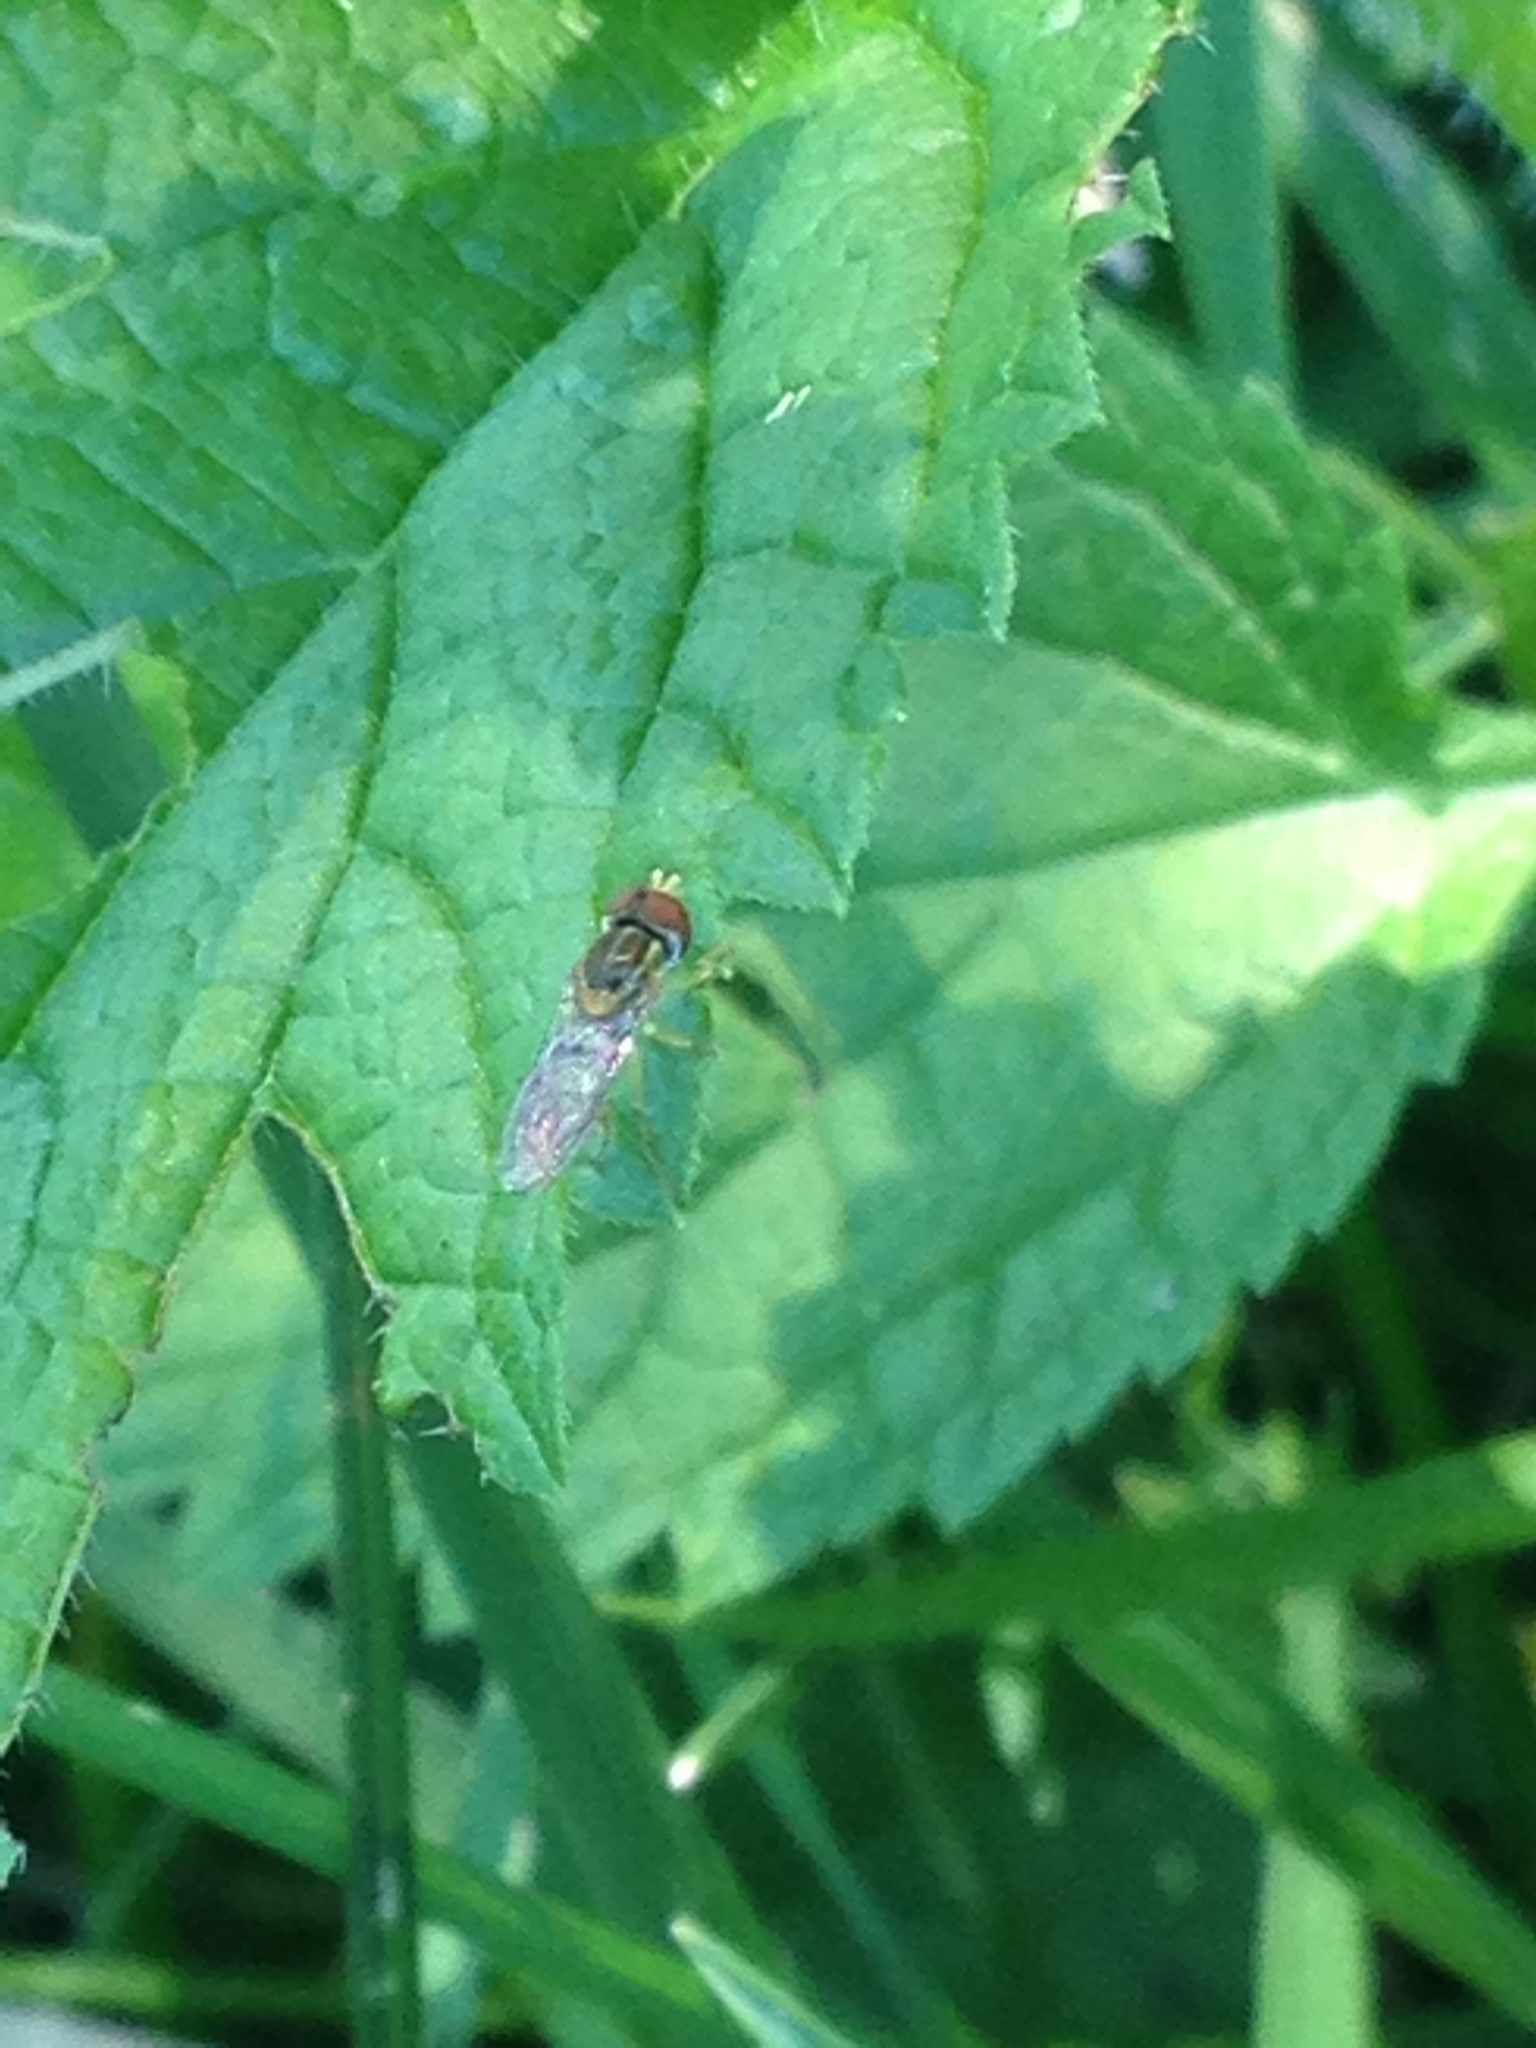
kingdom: Animalia
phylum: Arthropoda
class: Insecta
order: Diptera
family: Syrphidae
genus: Toxomerus
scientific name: Toxomerus
